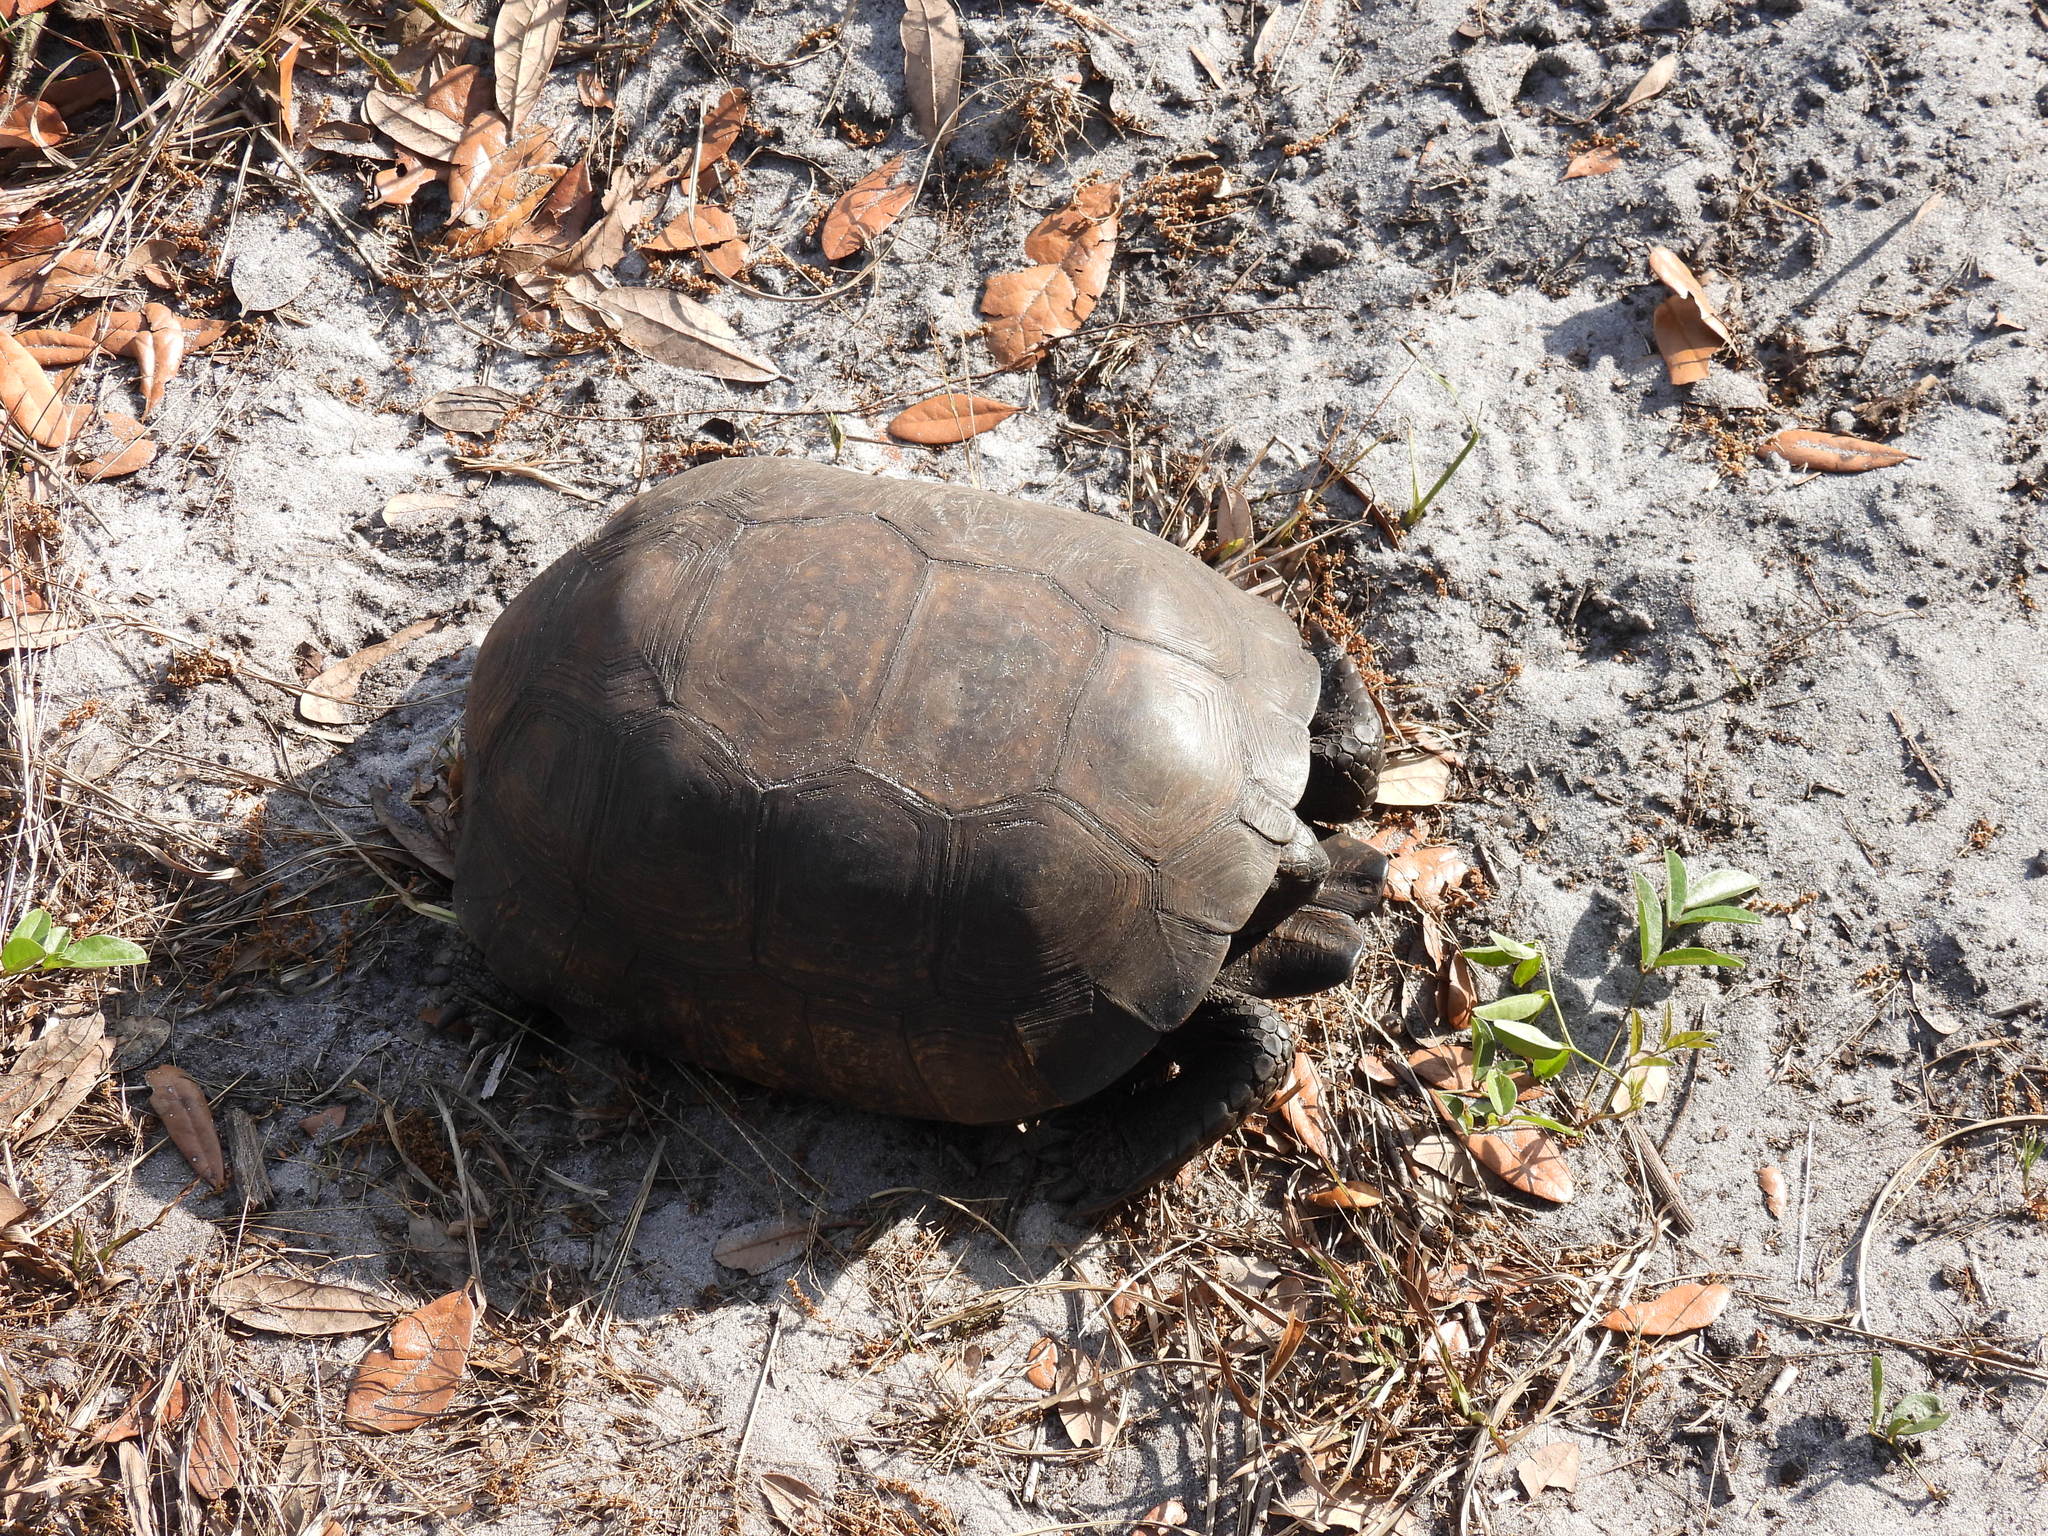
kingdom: Animalia
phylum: Chordata
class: Testudines
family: Testudinidae
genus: Gopherus
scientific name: Gopherus polyphemus
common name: Florida gopher tortoise
